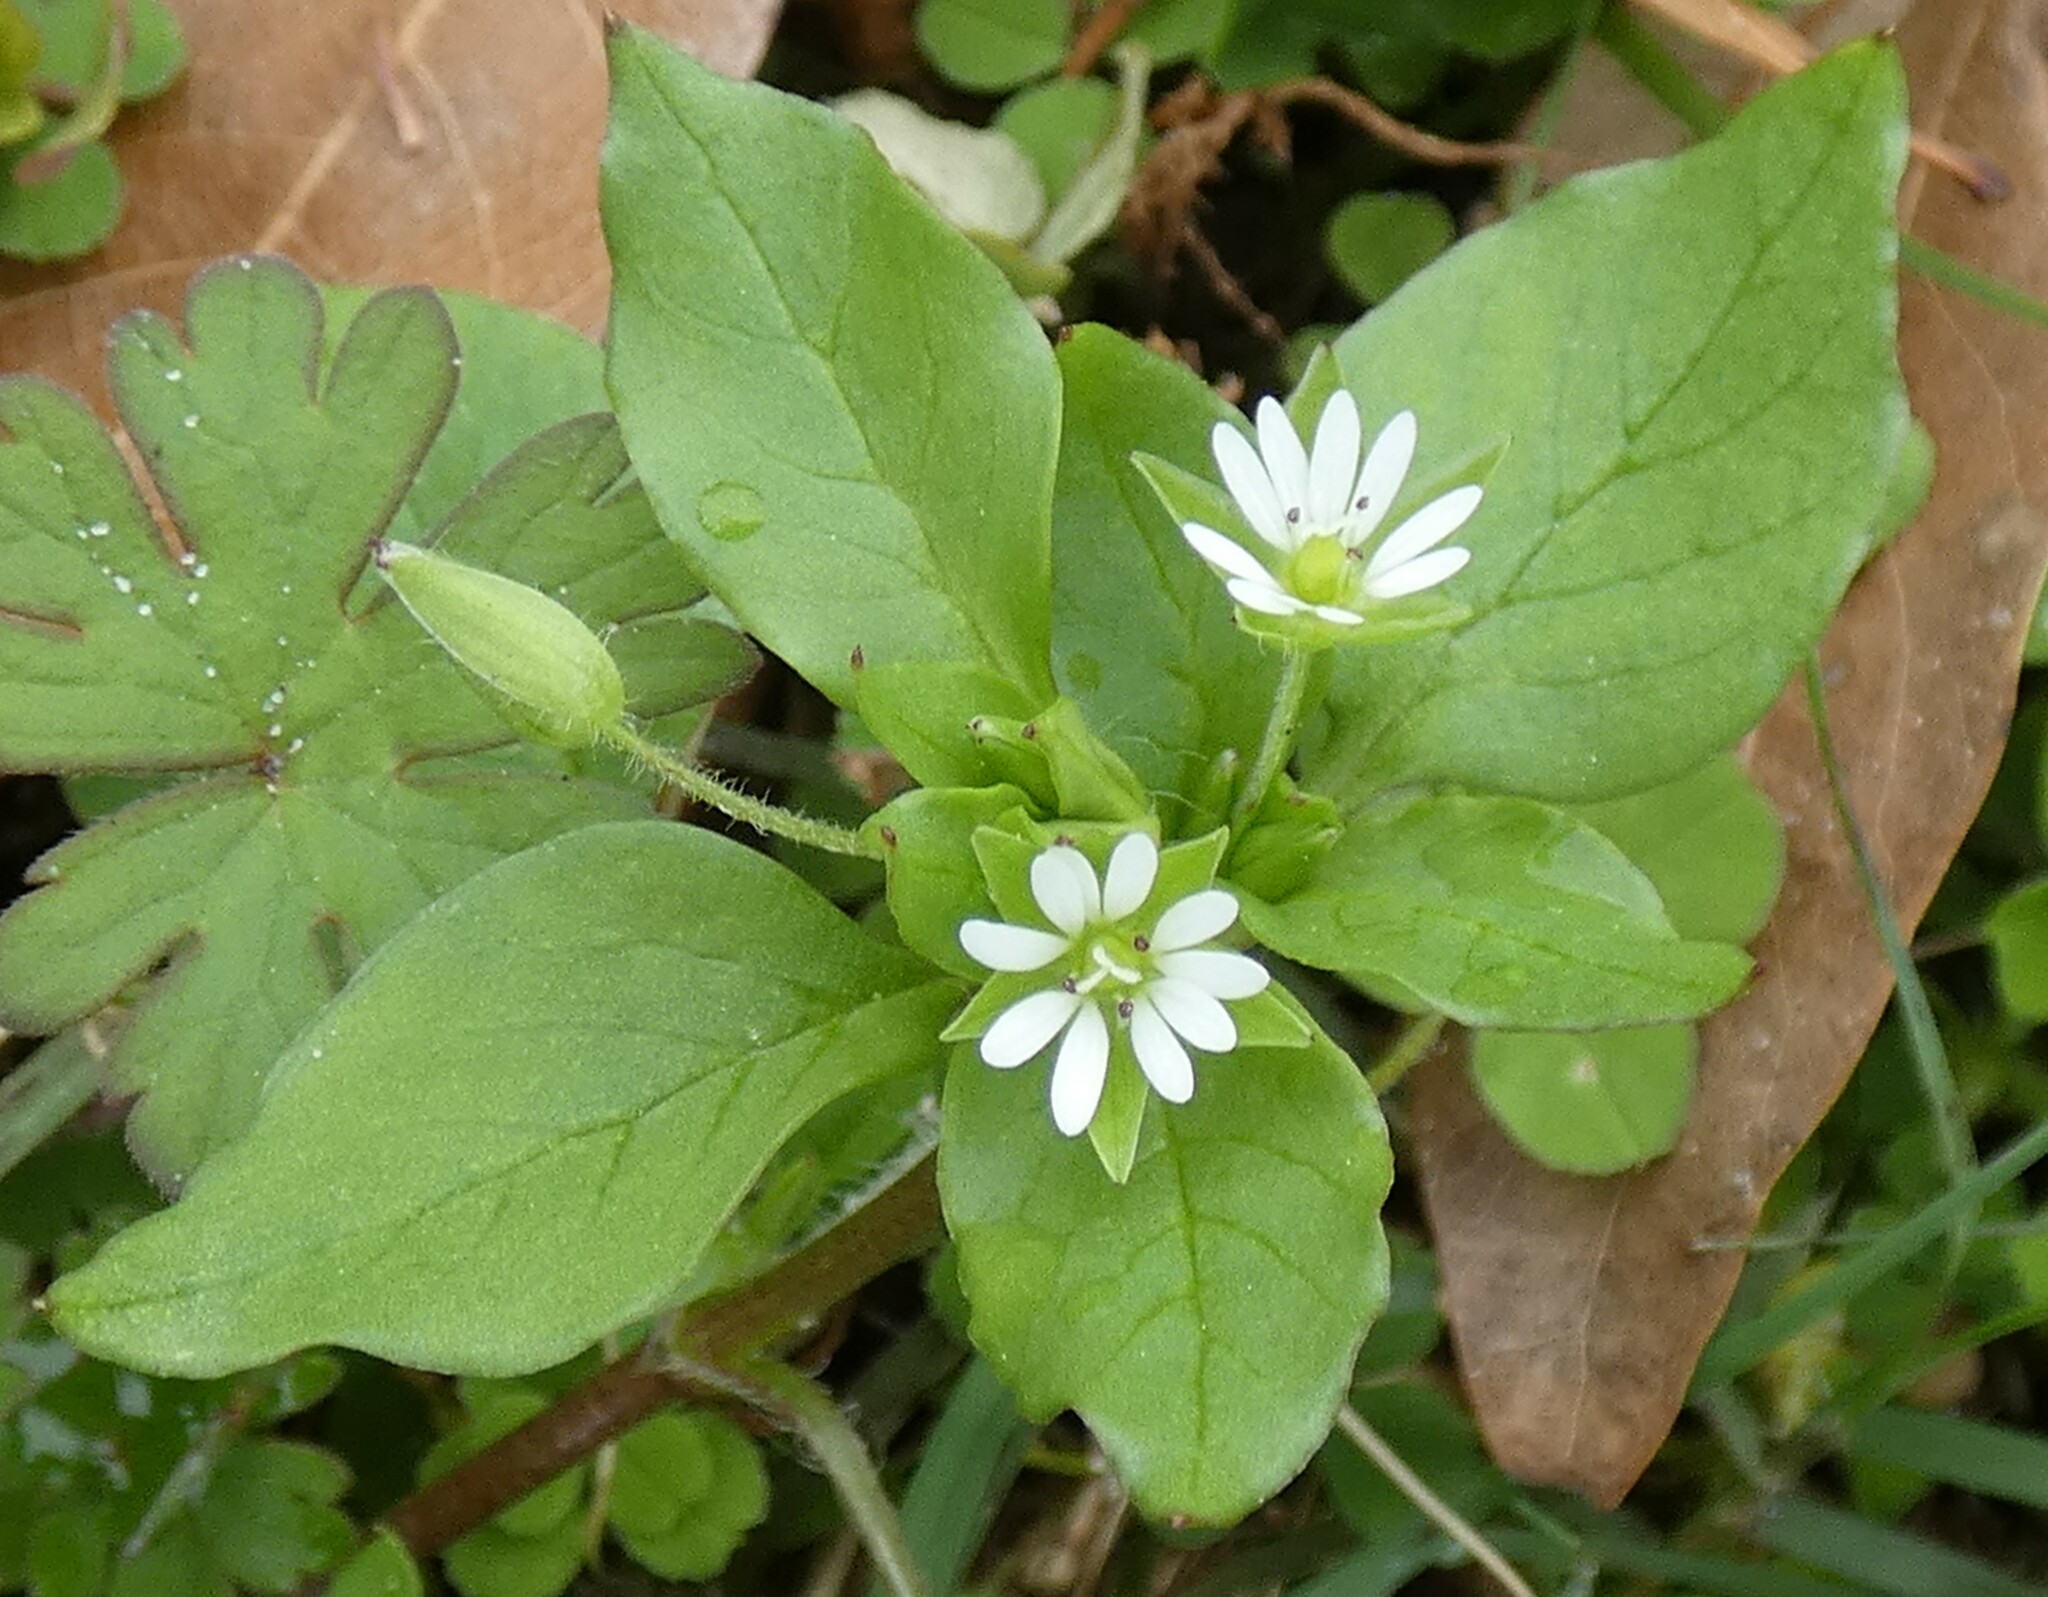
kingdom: Plantae
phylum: Tracheophyta
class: Magnoliopsida
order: Caryophyllales
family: Caryophyllaceae
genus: Stellaria
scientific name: Stellaria media
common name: Common chickweed
